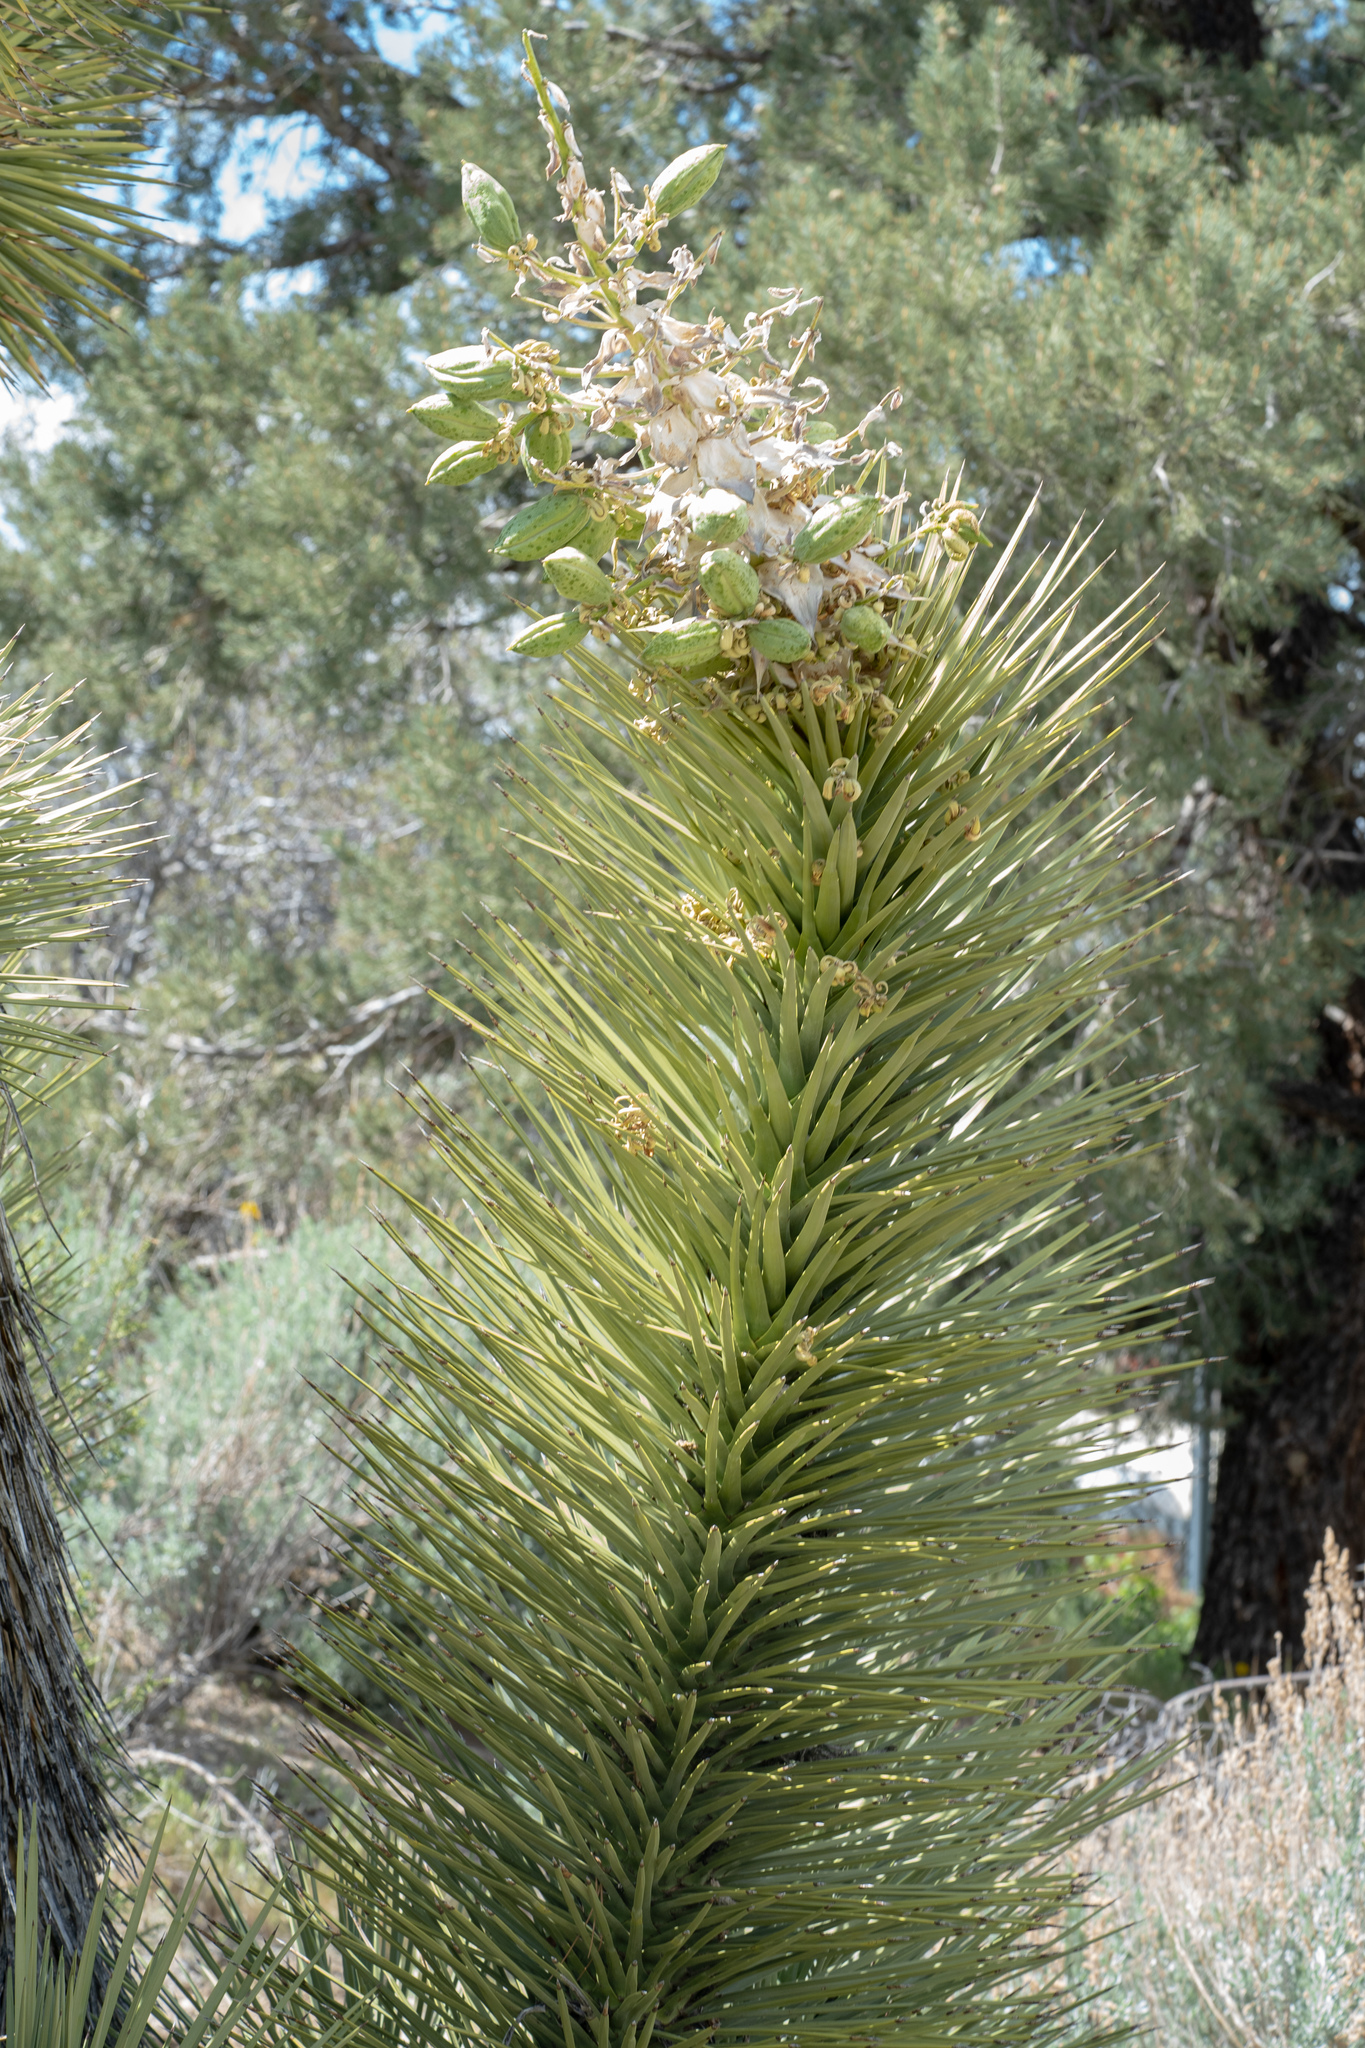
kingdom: Plantae
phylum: Tracheophyta
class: Liliopsida
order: Asparagales
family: Asparagaceae
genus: Yucca
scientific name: Yucca brevifolia
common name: Joshua tree
